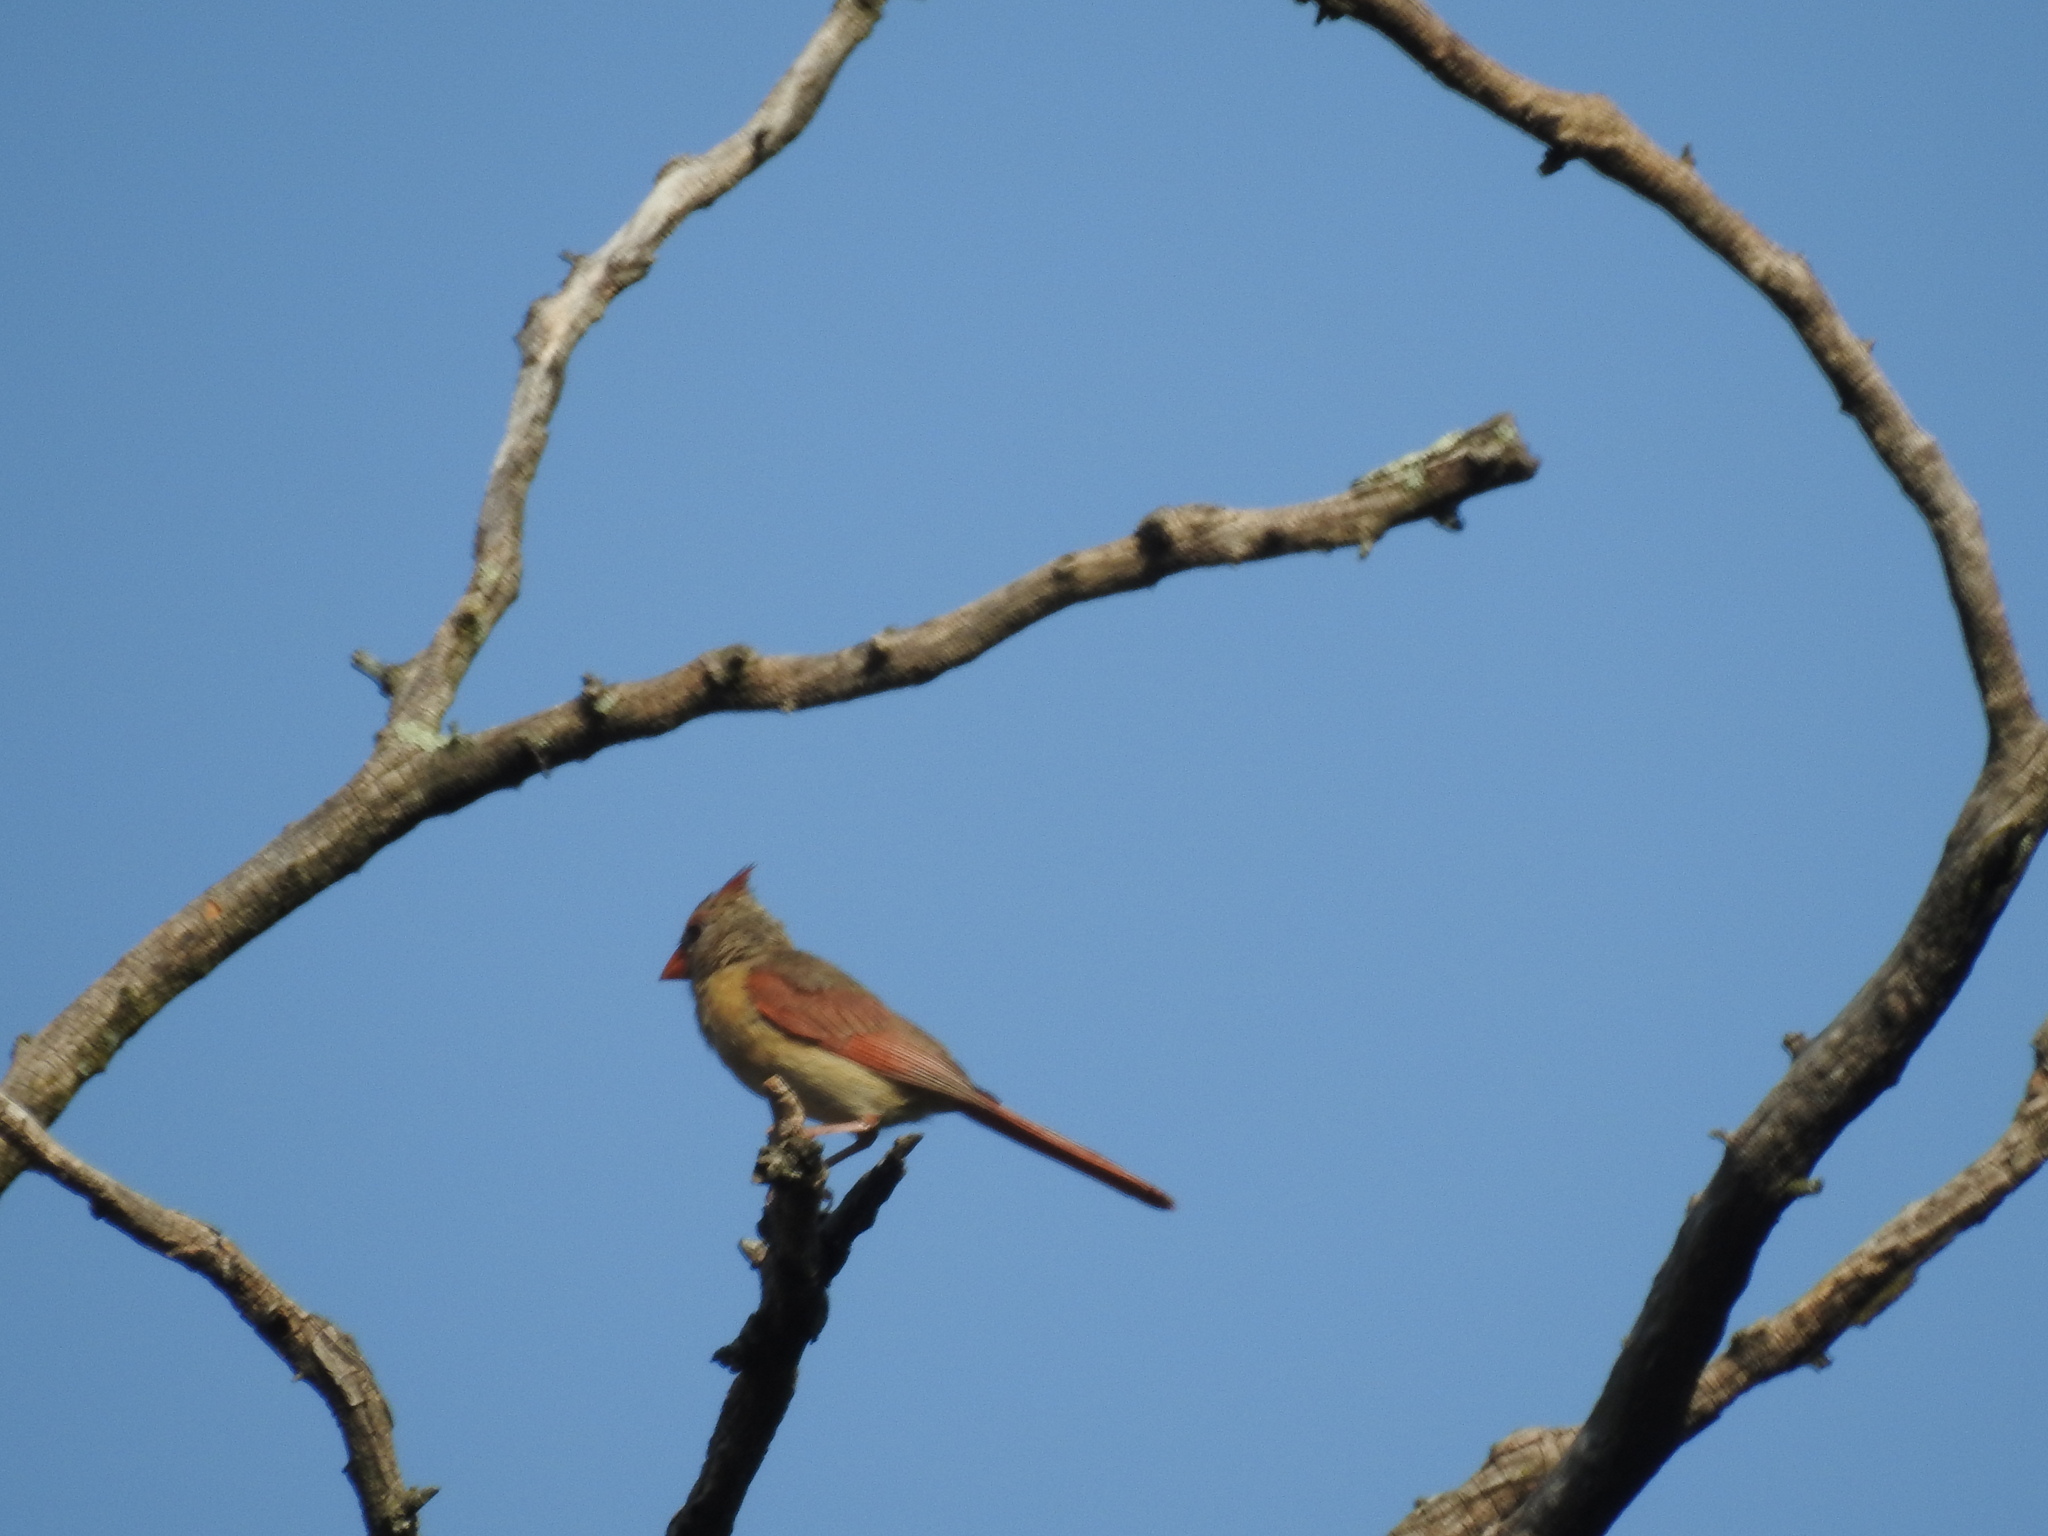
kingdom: Animalia
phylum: Chordata
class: Aves
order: Passeriformes
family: Cardinalidae
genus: Cardinalis
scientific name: Cardinalis cardinalis
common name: Northern cardinal
